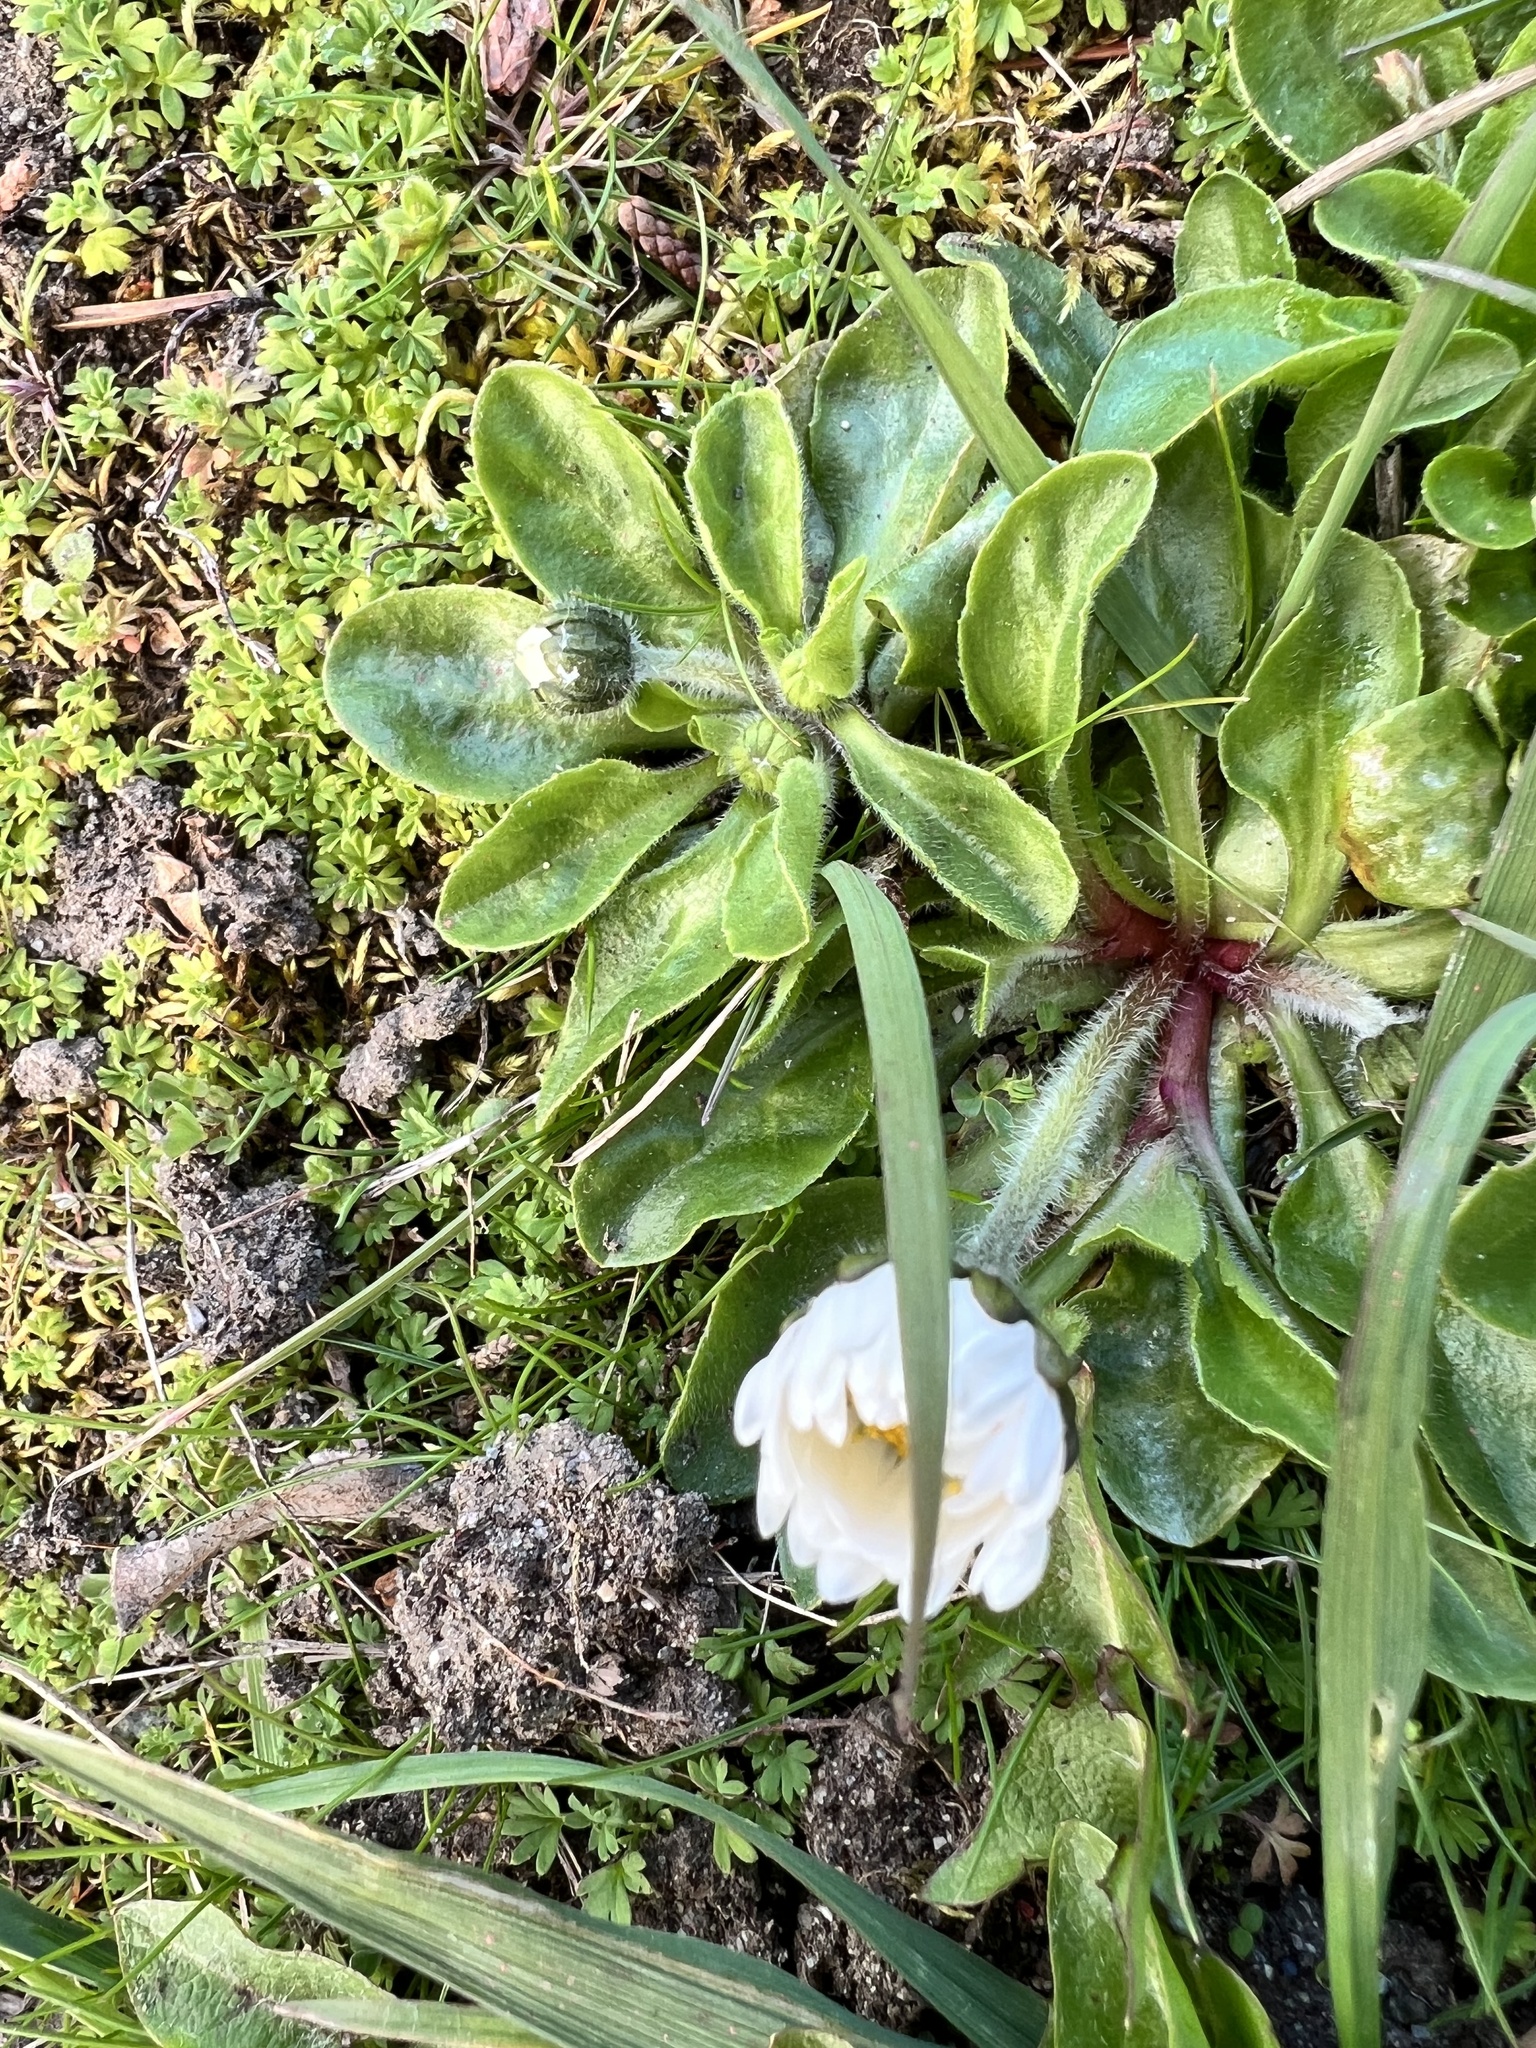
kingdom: Plantae
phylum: Tracheophyta
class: Magnoliopsida
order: Asterales
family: Asteraceae
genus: Bellis
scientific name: Bellis perennis
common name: Lawndaisy
